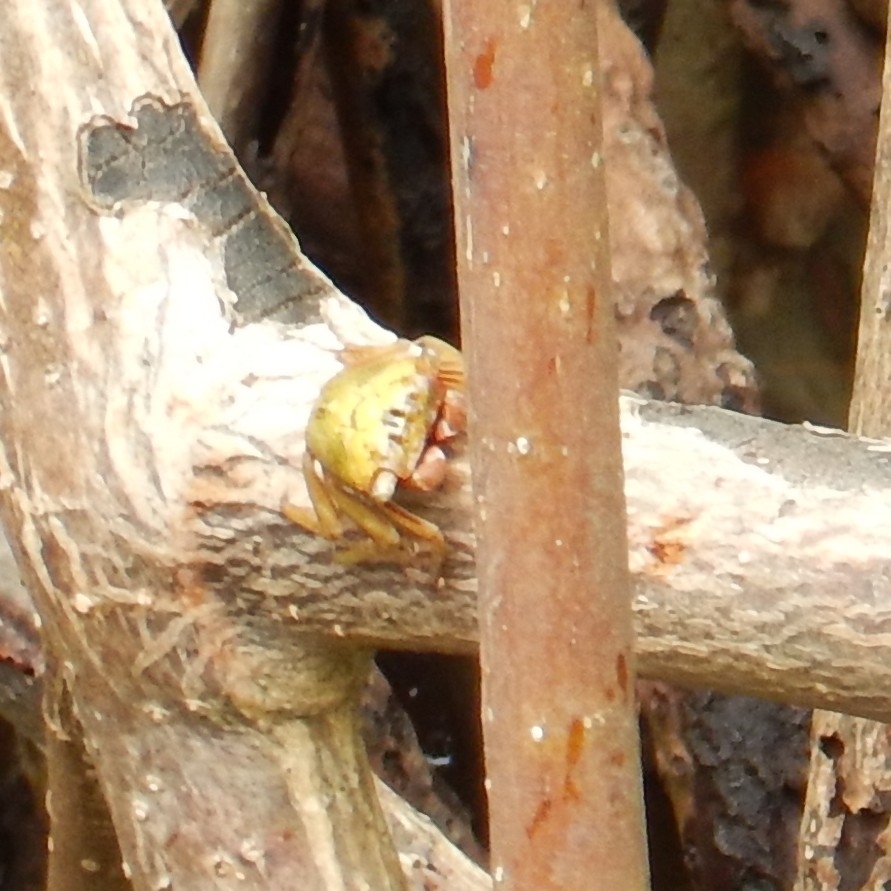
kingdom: Animalia
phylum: Arthropoda
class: Malacostraca
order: Decapoda
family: Sesarmidae
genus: Aratus
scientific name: Aratus pisonii
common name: Mangrove crab
